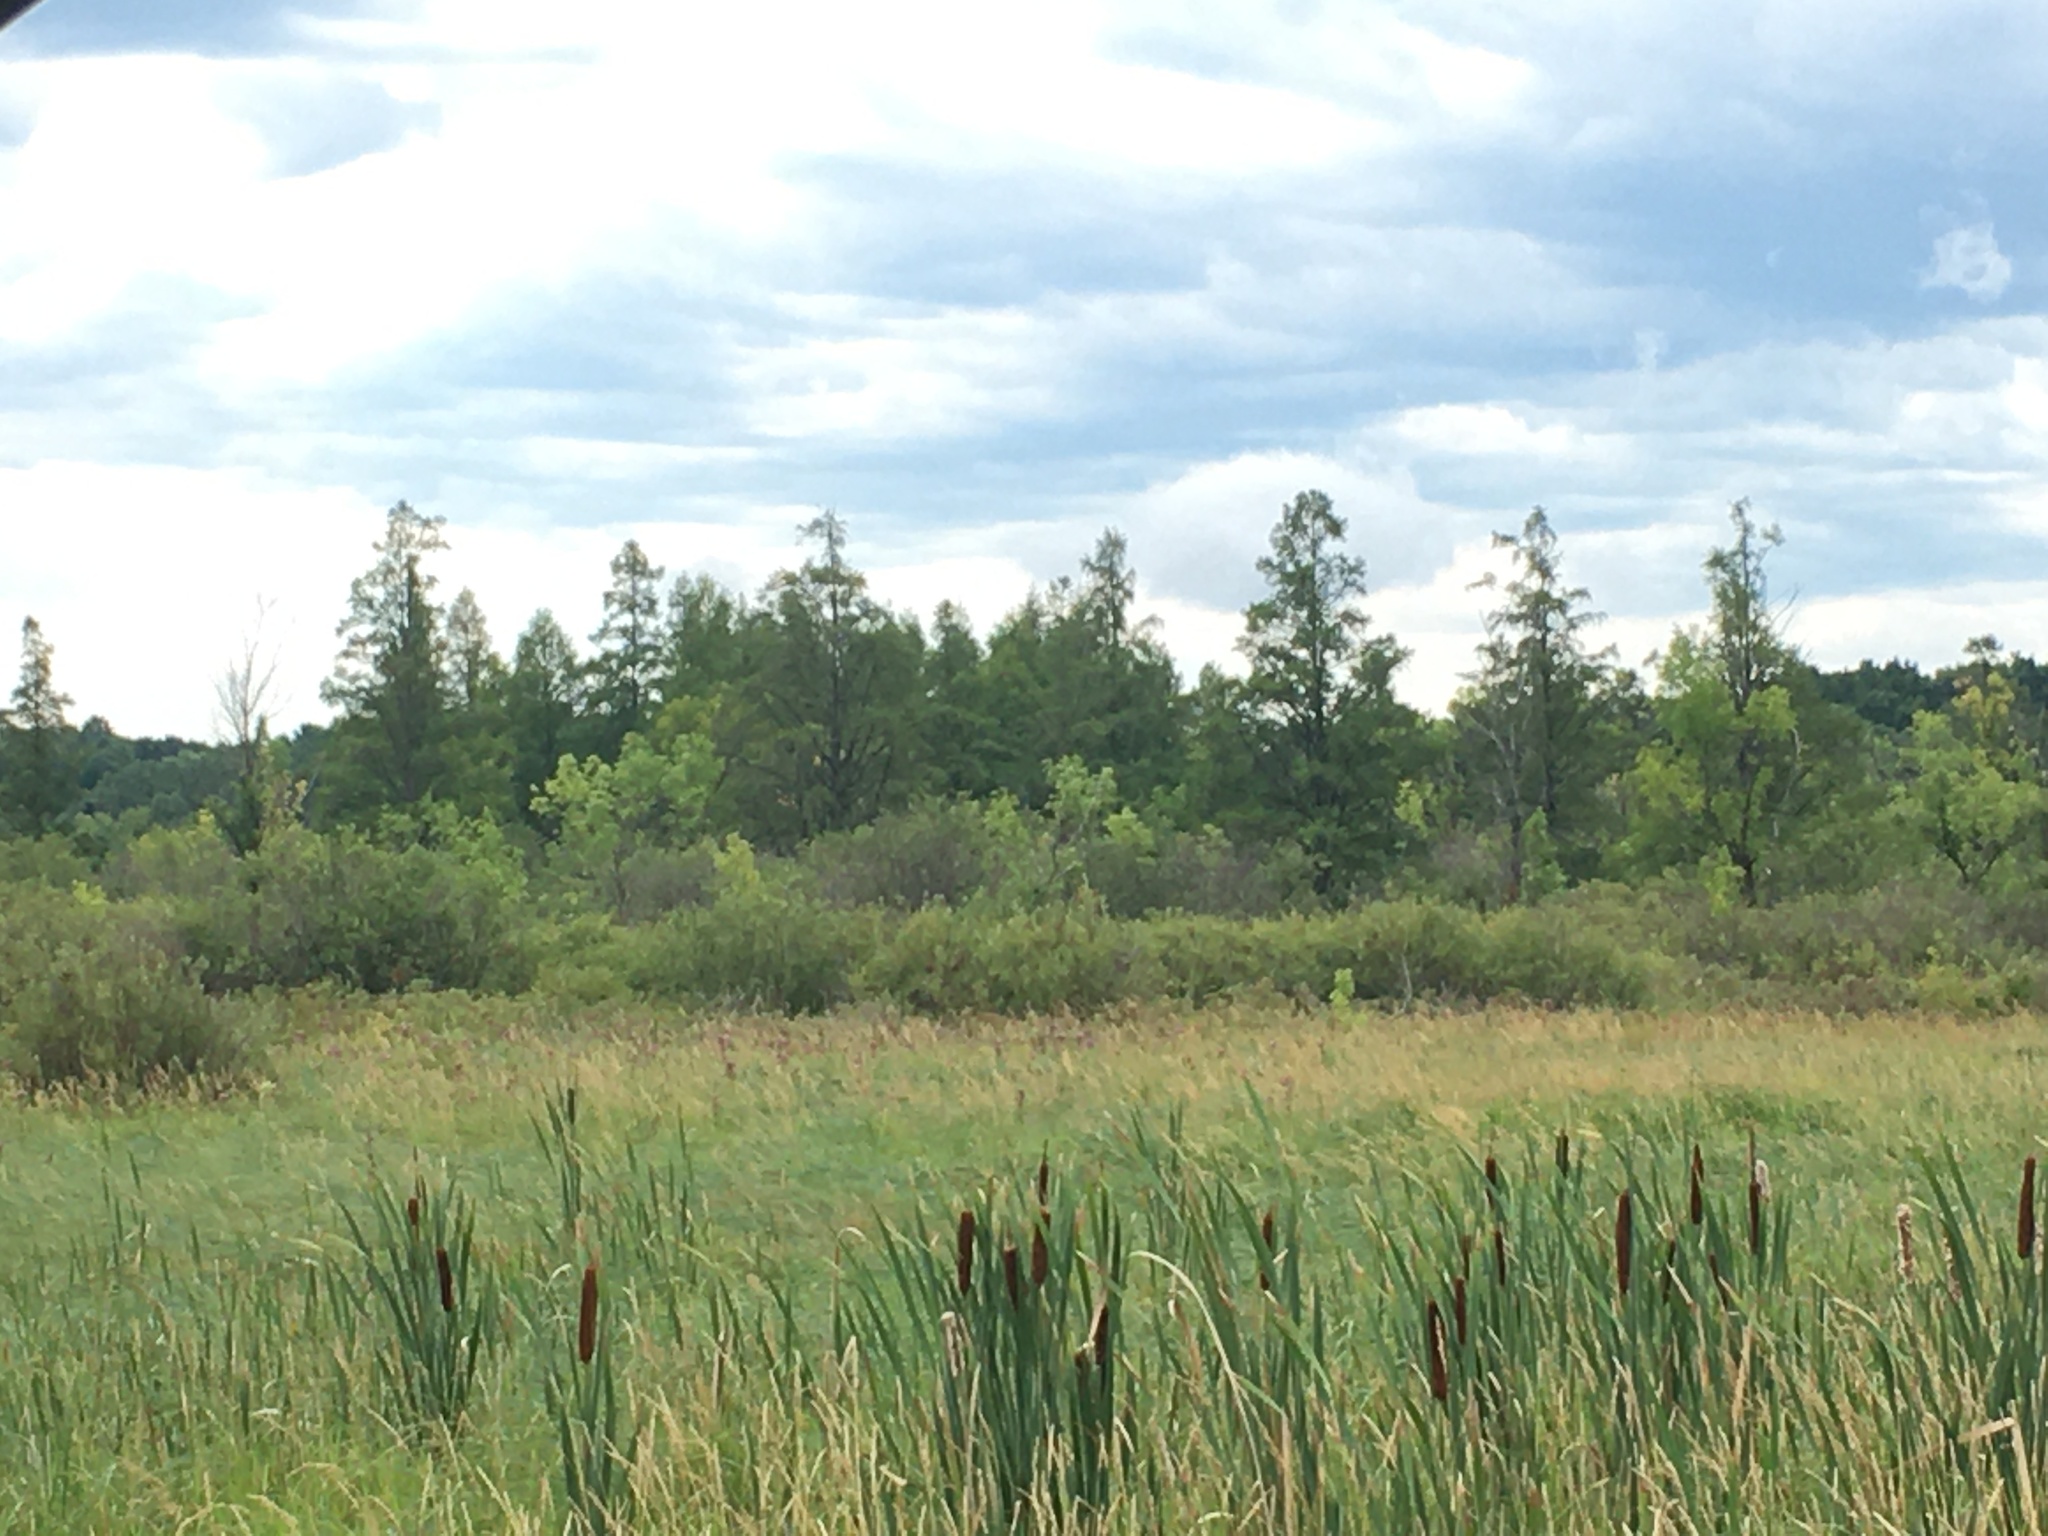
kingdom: Plantae
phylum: Tracheophyta
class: Pinopsida
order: Pinales
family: Pinaceae
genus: Larix
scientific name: Larix laricina
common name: American larch
